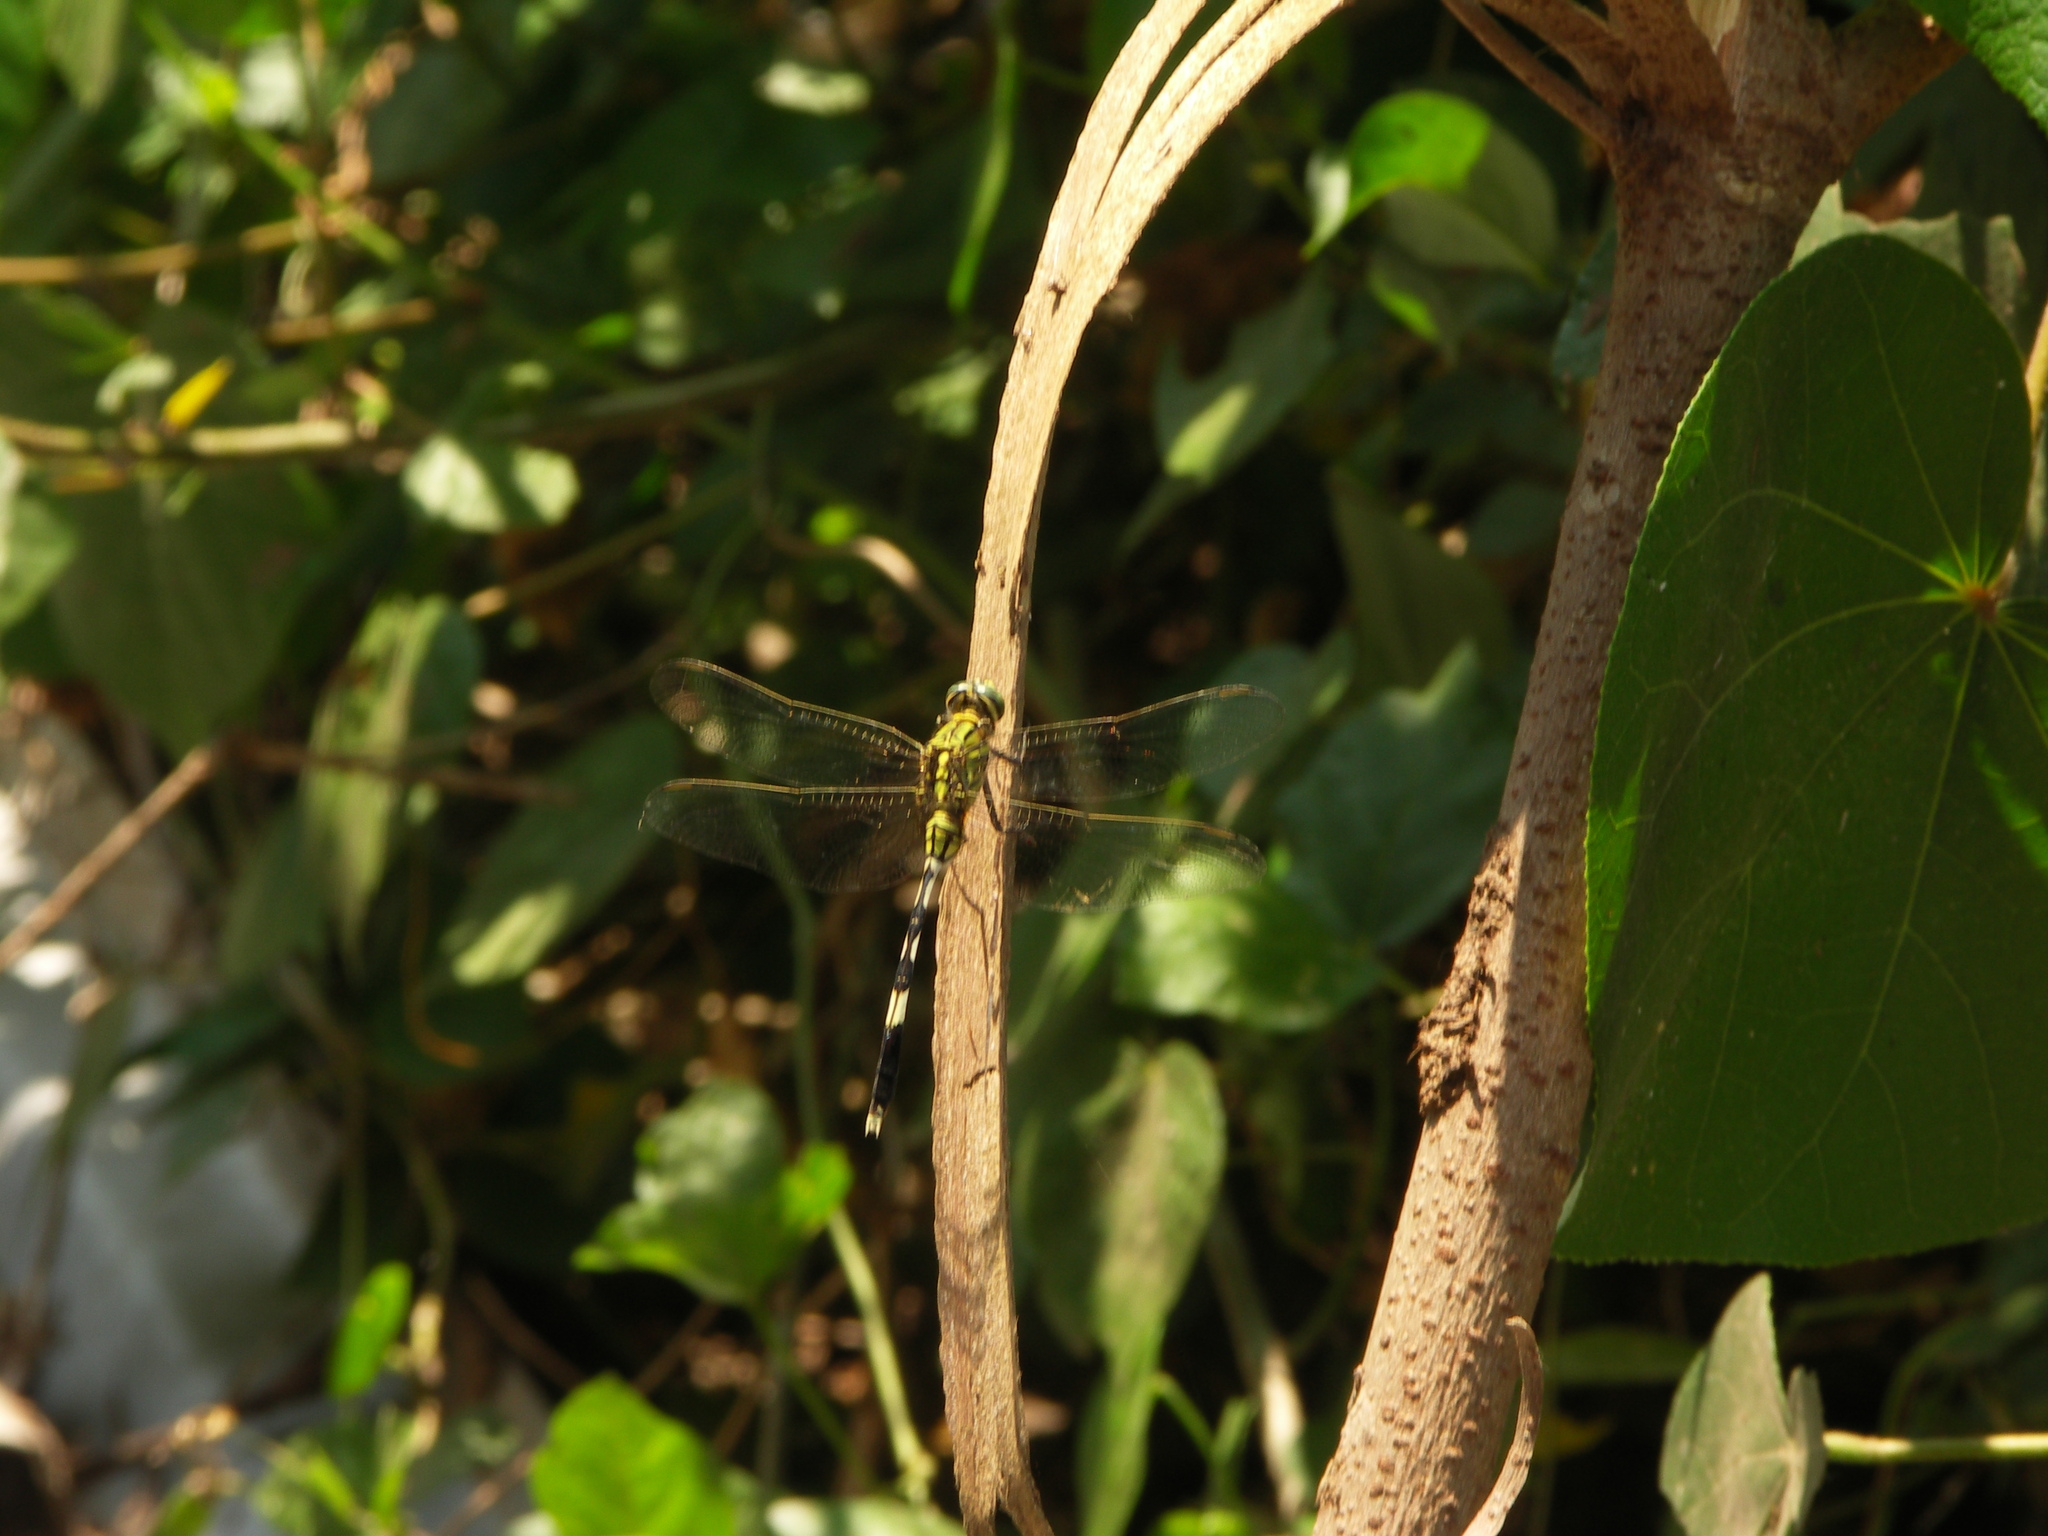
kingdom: Animalia
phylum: Arthropoda
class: Insecta
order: Odonata
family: Libellulidae
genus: Orthetrum
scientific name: Orthetrum sabina
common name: Slender skimmer
